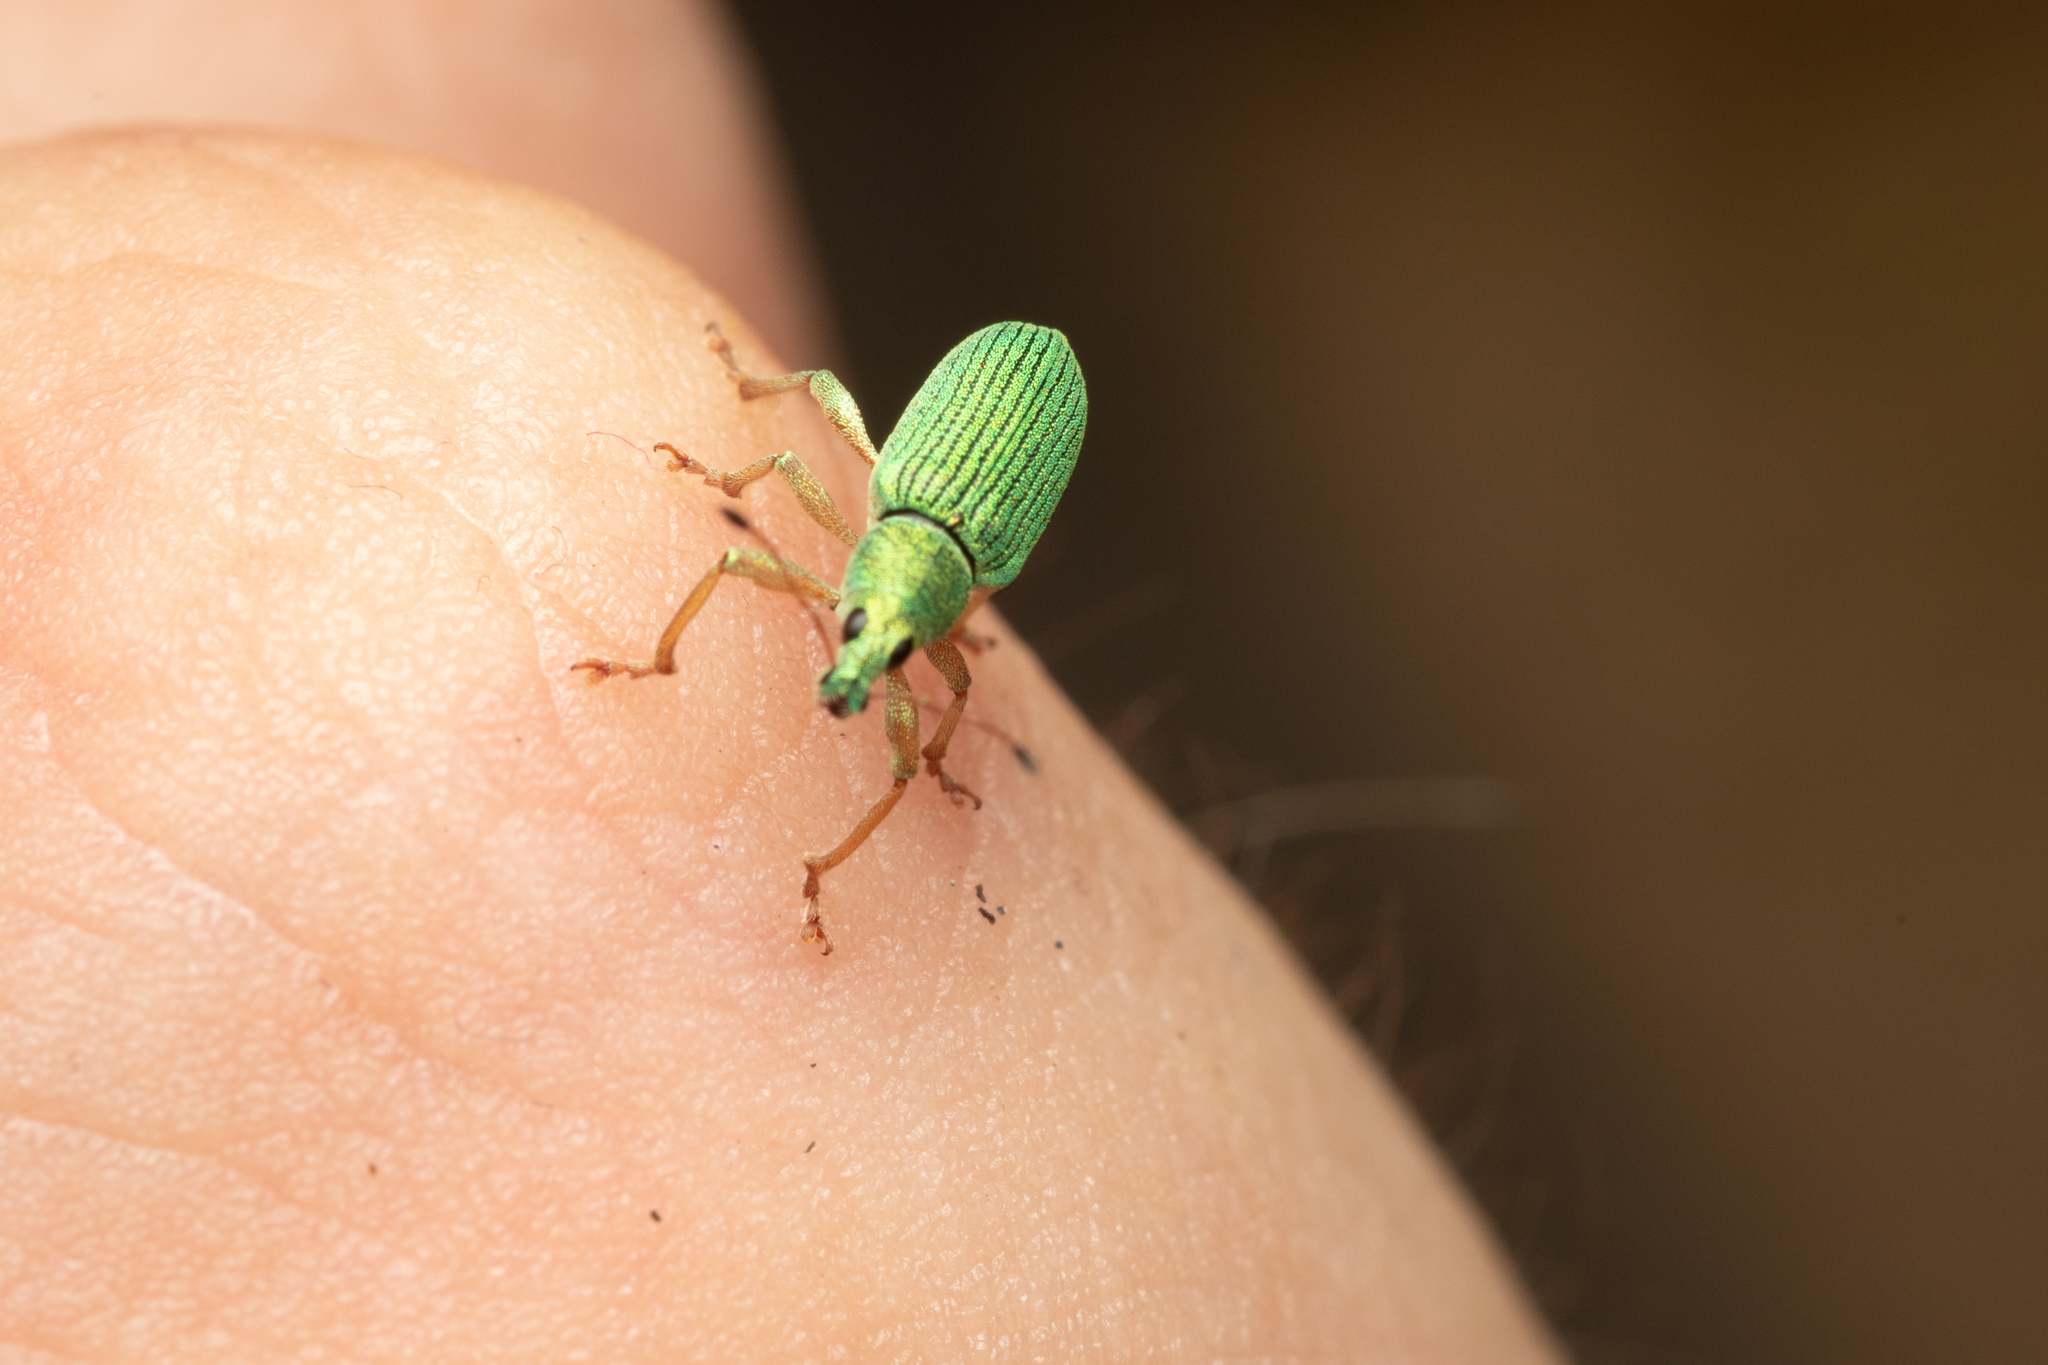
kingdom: Animalia
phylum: Arthropoda
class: Insecta
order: Coleoptera
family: Curculionidae
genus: Polydrusus
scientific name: Polydrusus formosus
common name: Weevil
